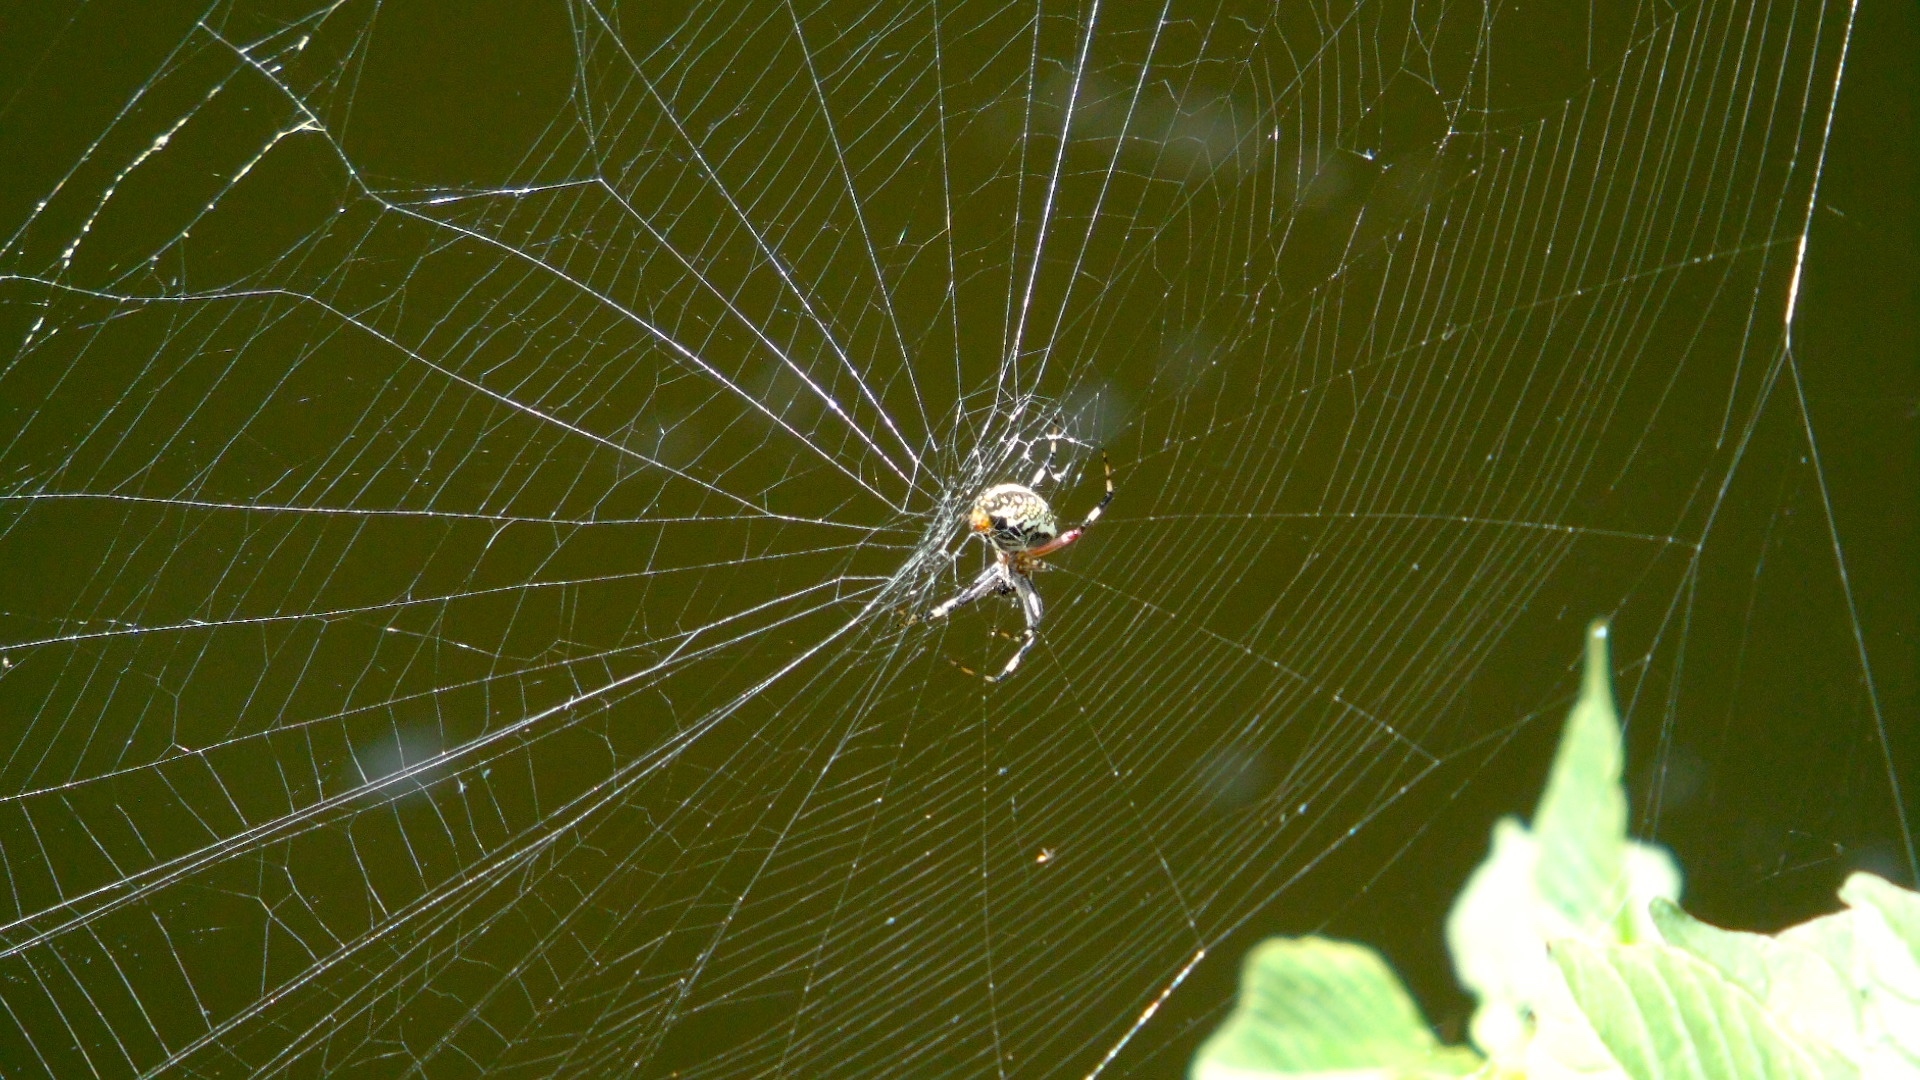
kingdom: Animalia
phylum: Arthropoda
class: Arachnida
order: Araneae
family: Araneidae
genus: Neoscona
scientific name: Neoscona
